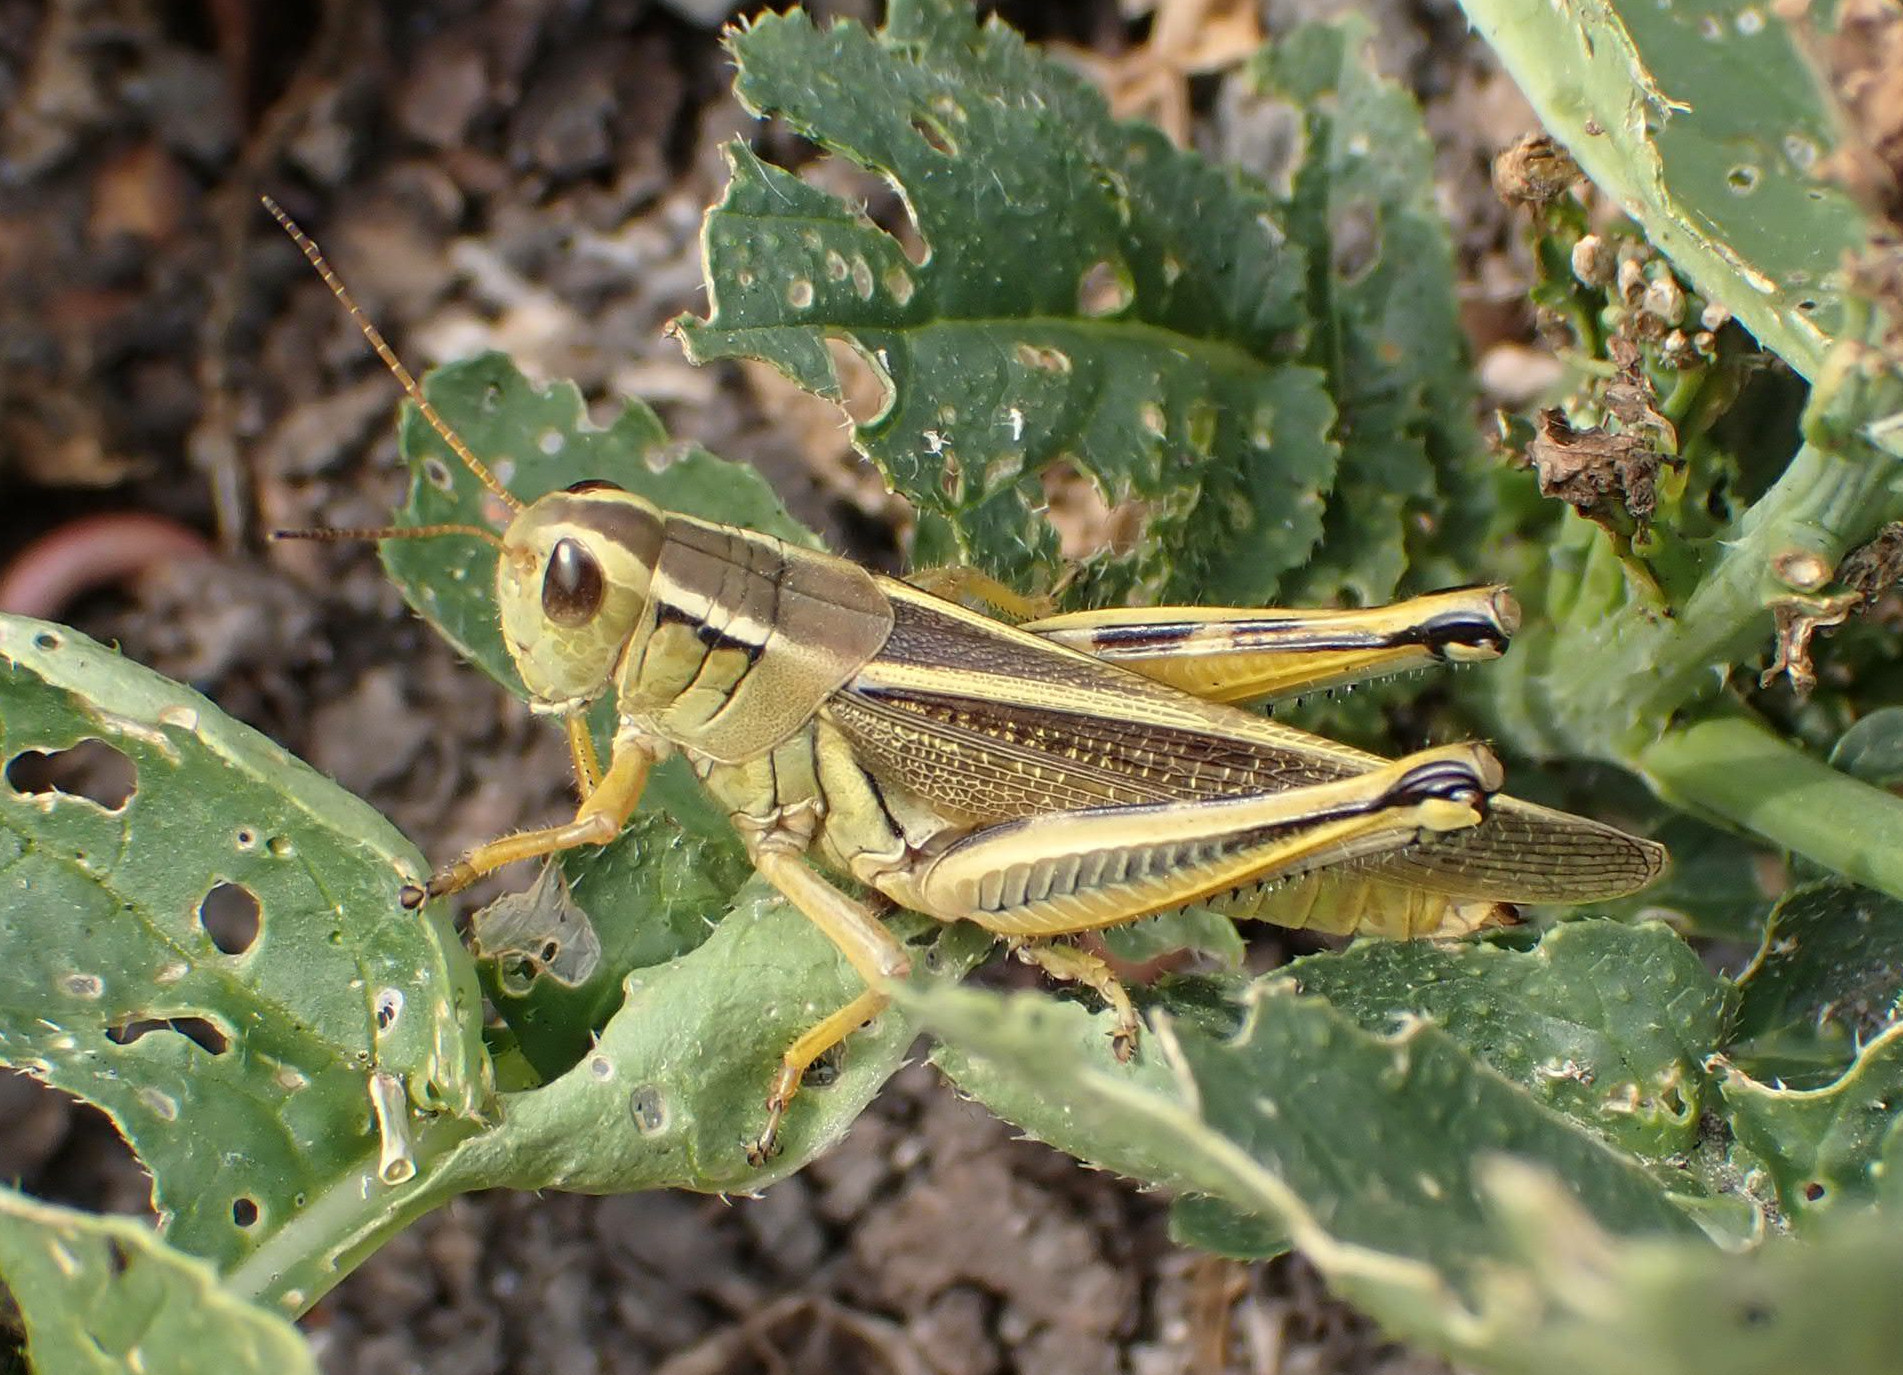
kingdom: Animalia
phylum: Arthropoda
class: Insecta
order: Orthoptera
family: Acrididae
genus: Melanoplus
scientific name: Melanoplus bivittatus
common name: Two-striped grasshopper
